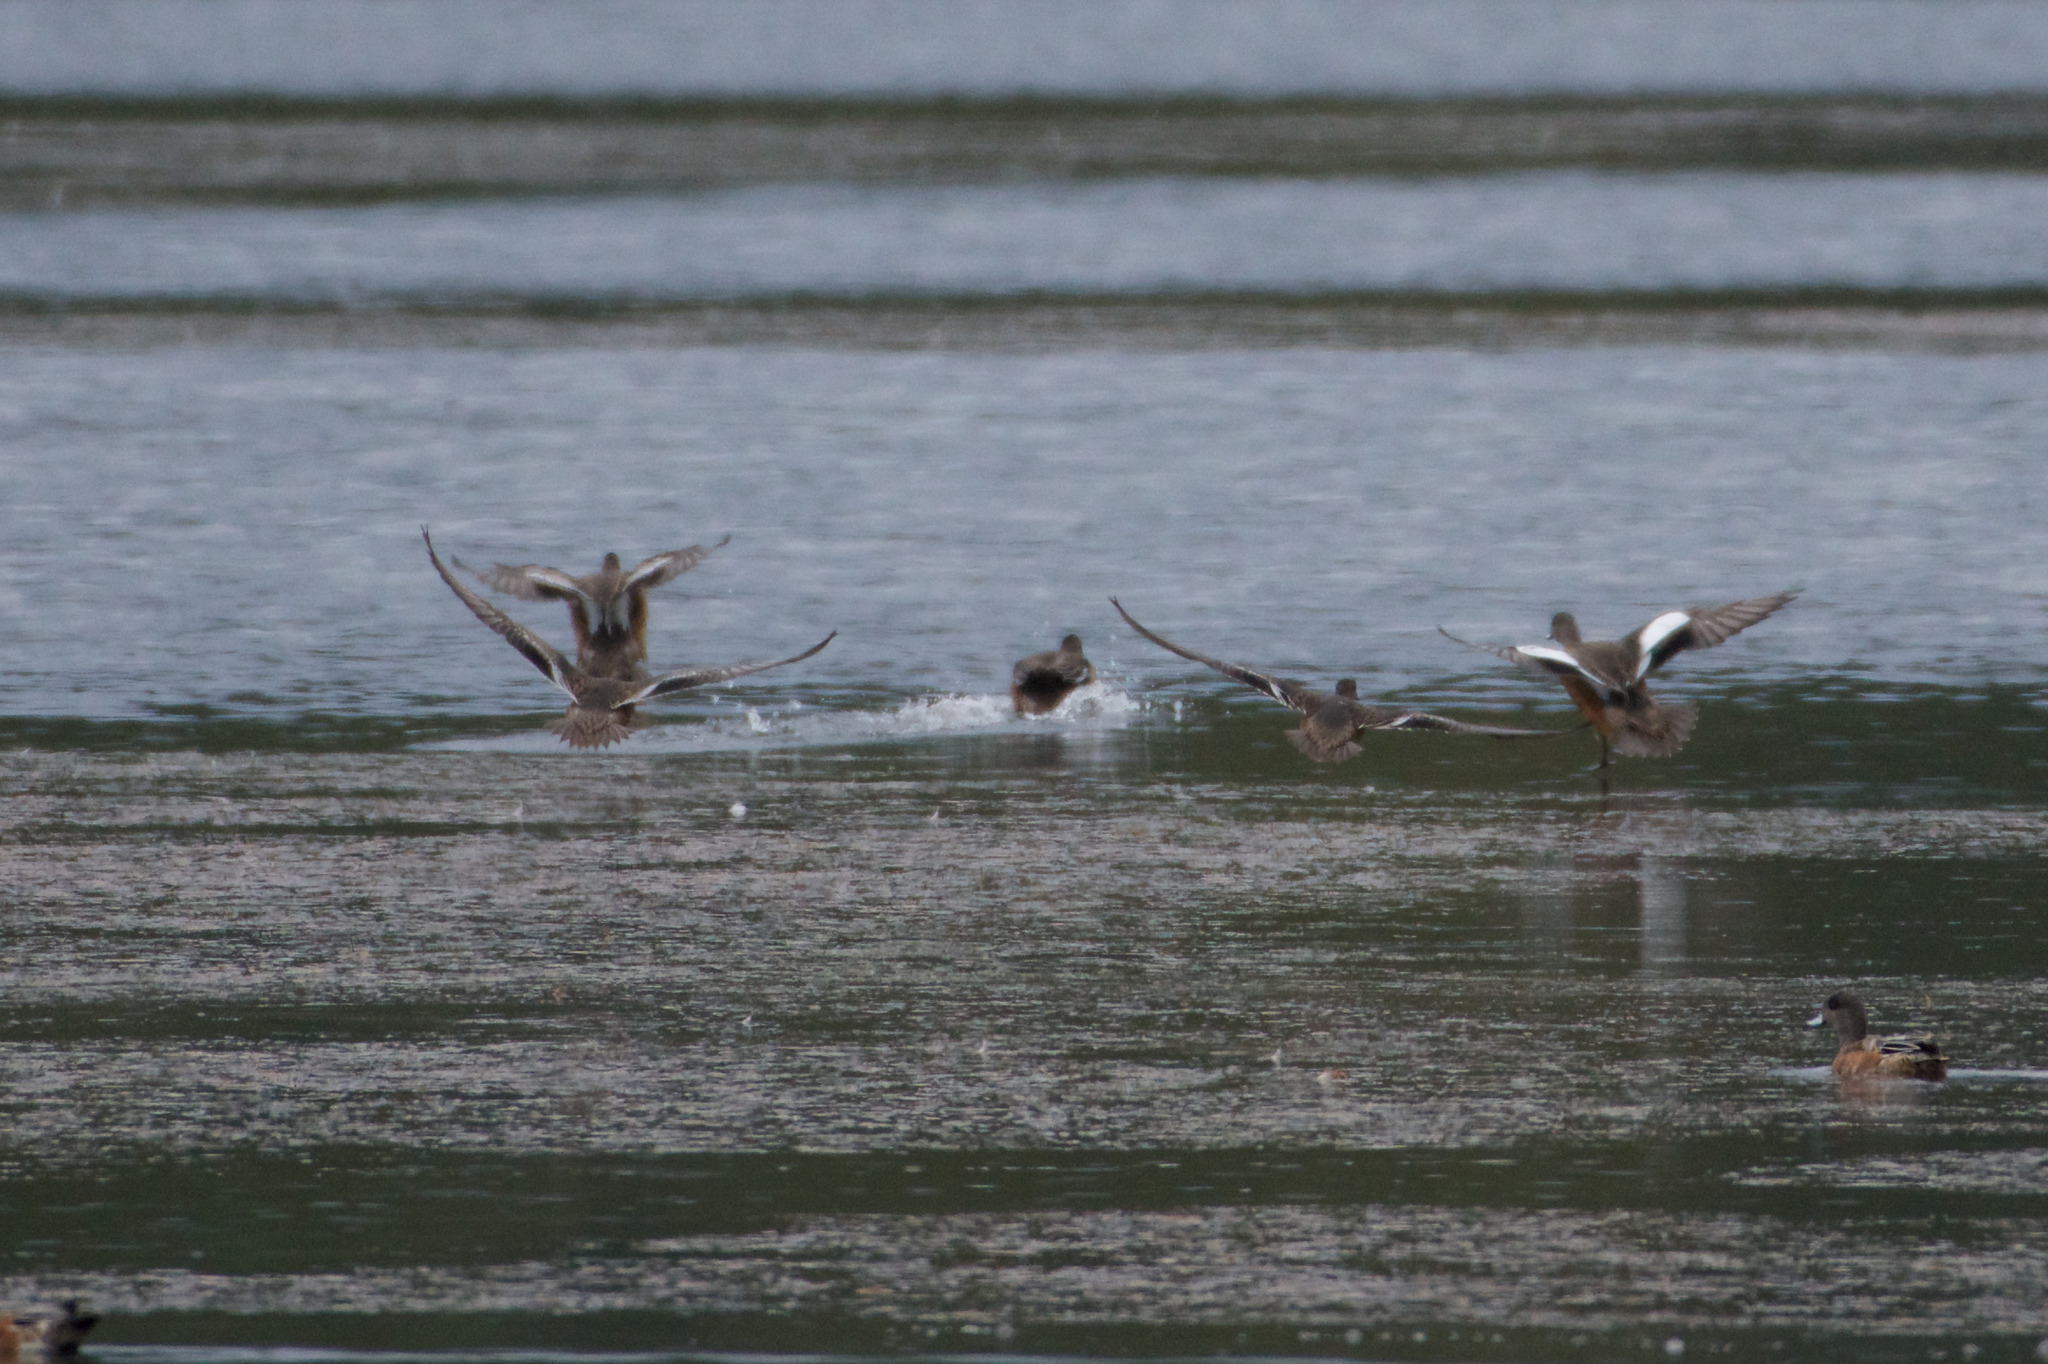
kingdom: Animalia
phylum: Chordata
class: Aves
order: Anseriformes
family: Anatidae
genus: Mareca
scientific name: Mareca americana
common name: American wigeon
